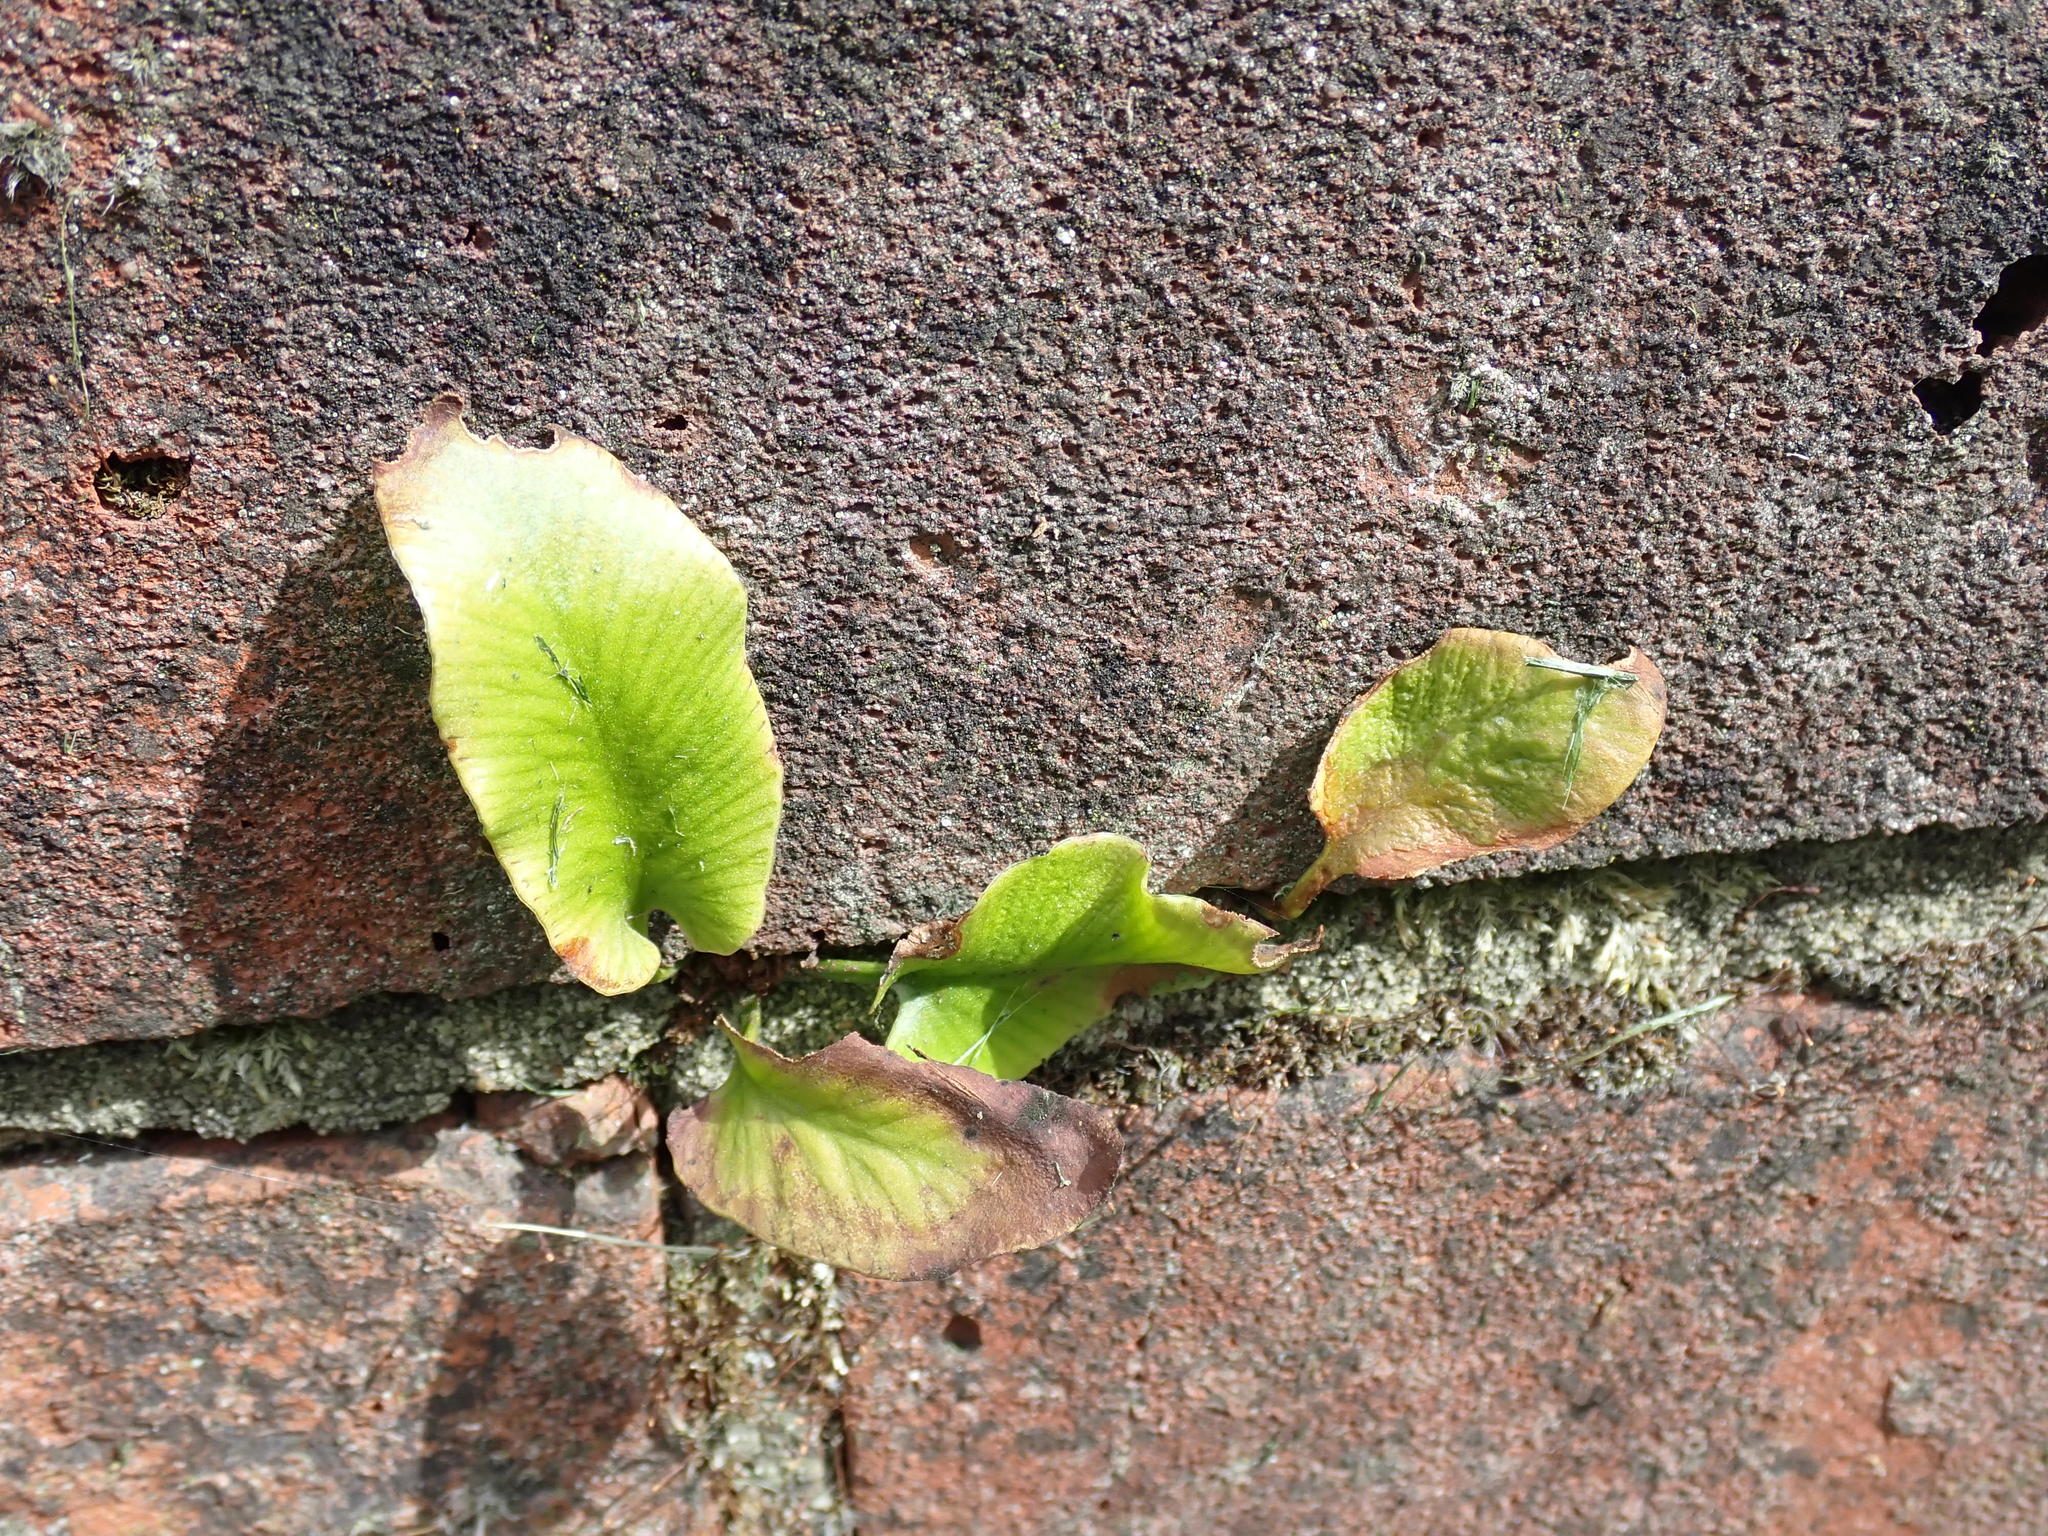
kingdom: Plantae
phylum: Tracheophyta
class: Polypodiopsida
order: Polypodiales
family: Aspleniaceae
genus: Asplenium
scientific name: Asplenium scolopendrium
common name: Hart's-tongue fern
